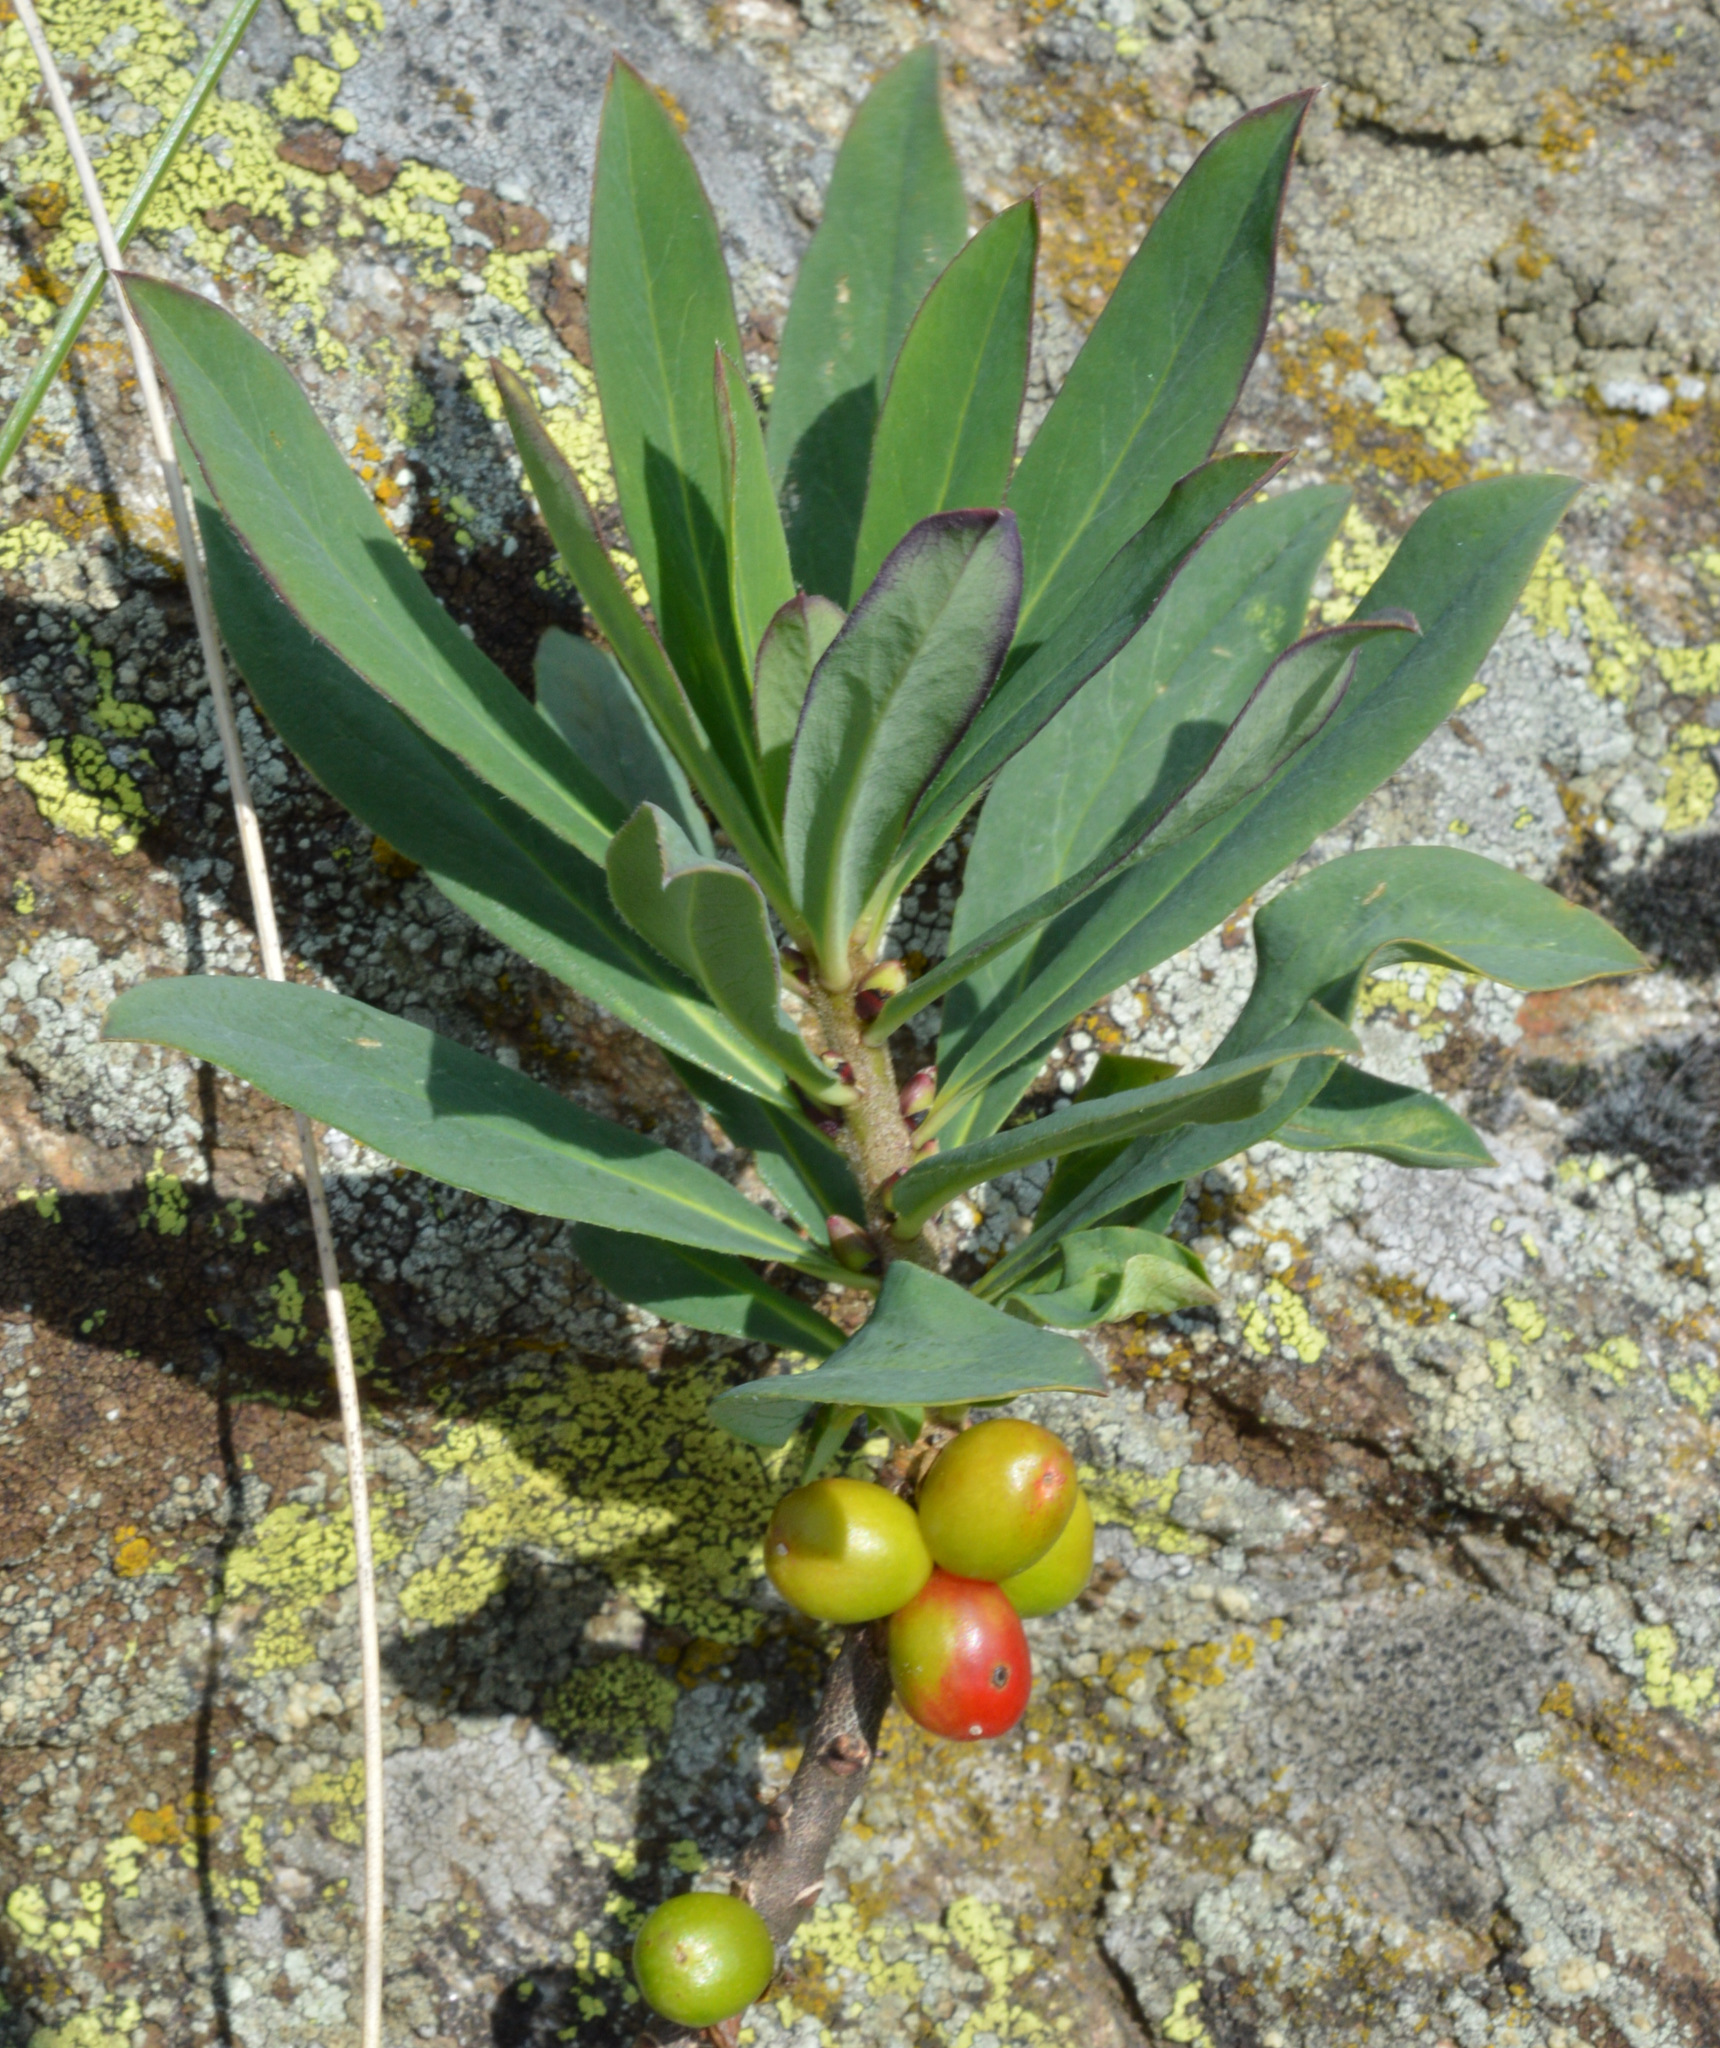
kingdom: Plantae
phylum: Tracheophyta
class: Magnoliopsida
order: Malvales
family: Thymelaeaceae
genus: Daphne
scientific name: Daphne mezereum
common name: Mezereon
